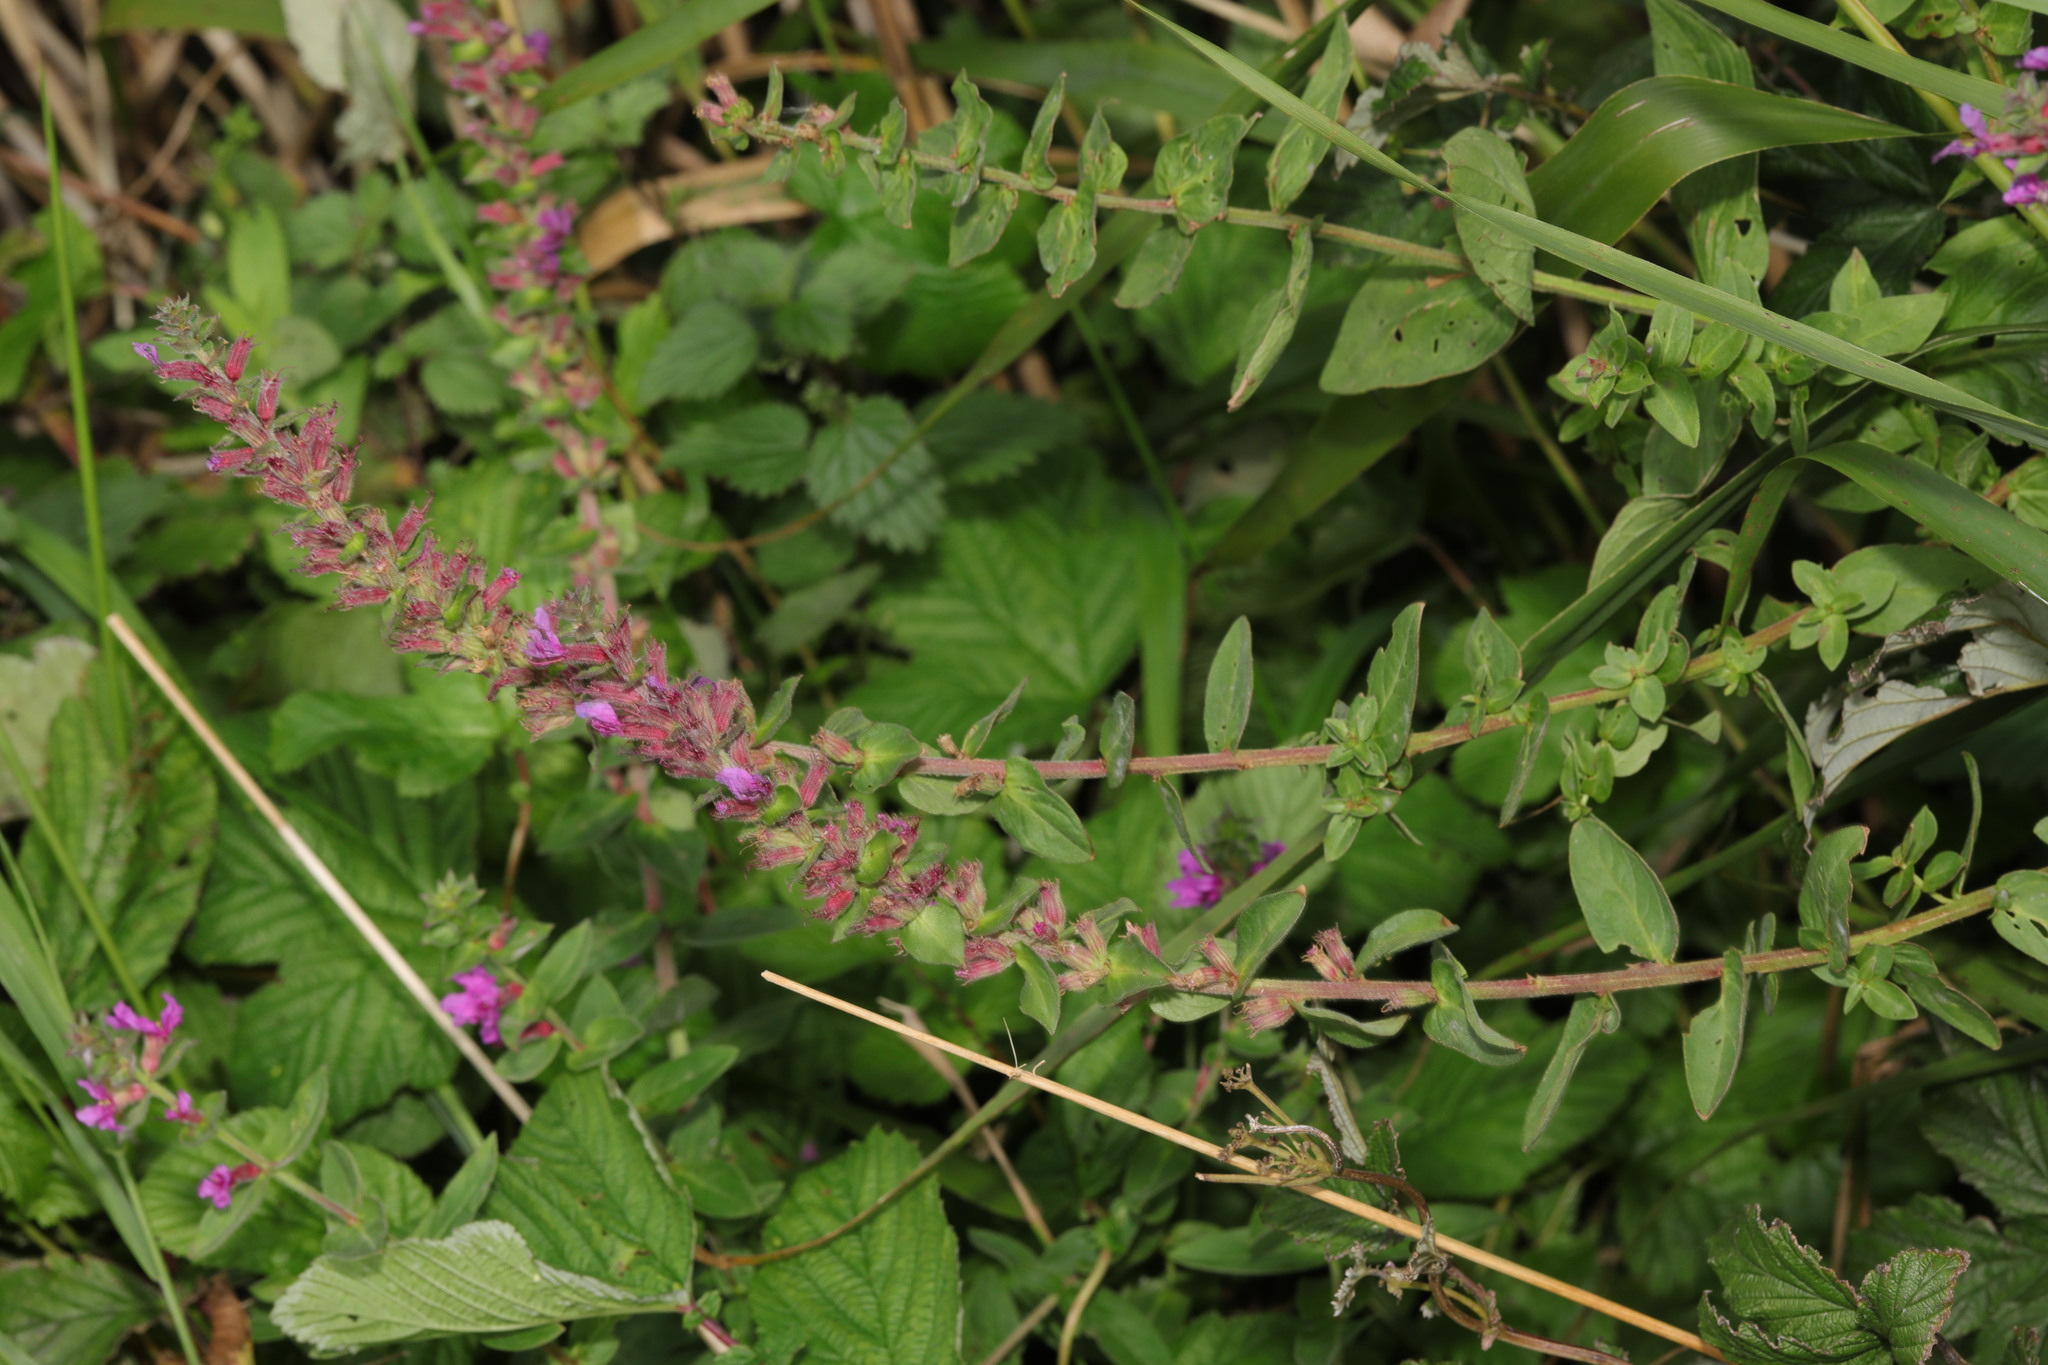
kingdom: Plantae
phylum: Tracheophyta
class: Magnoliopsida
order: Myrtales
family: Lythraceae
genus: Lythrum
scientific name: Lythrum salicaria
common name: Purple loosestrife
